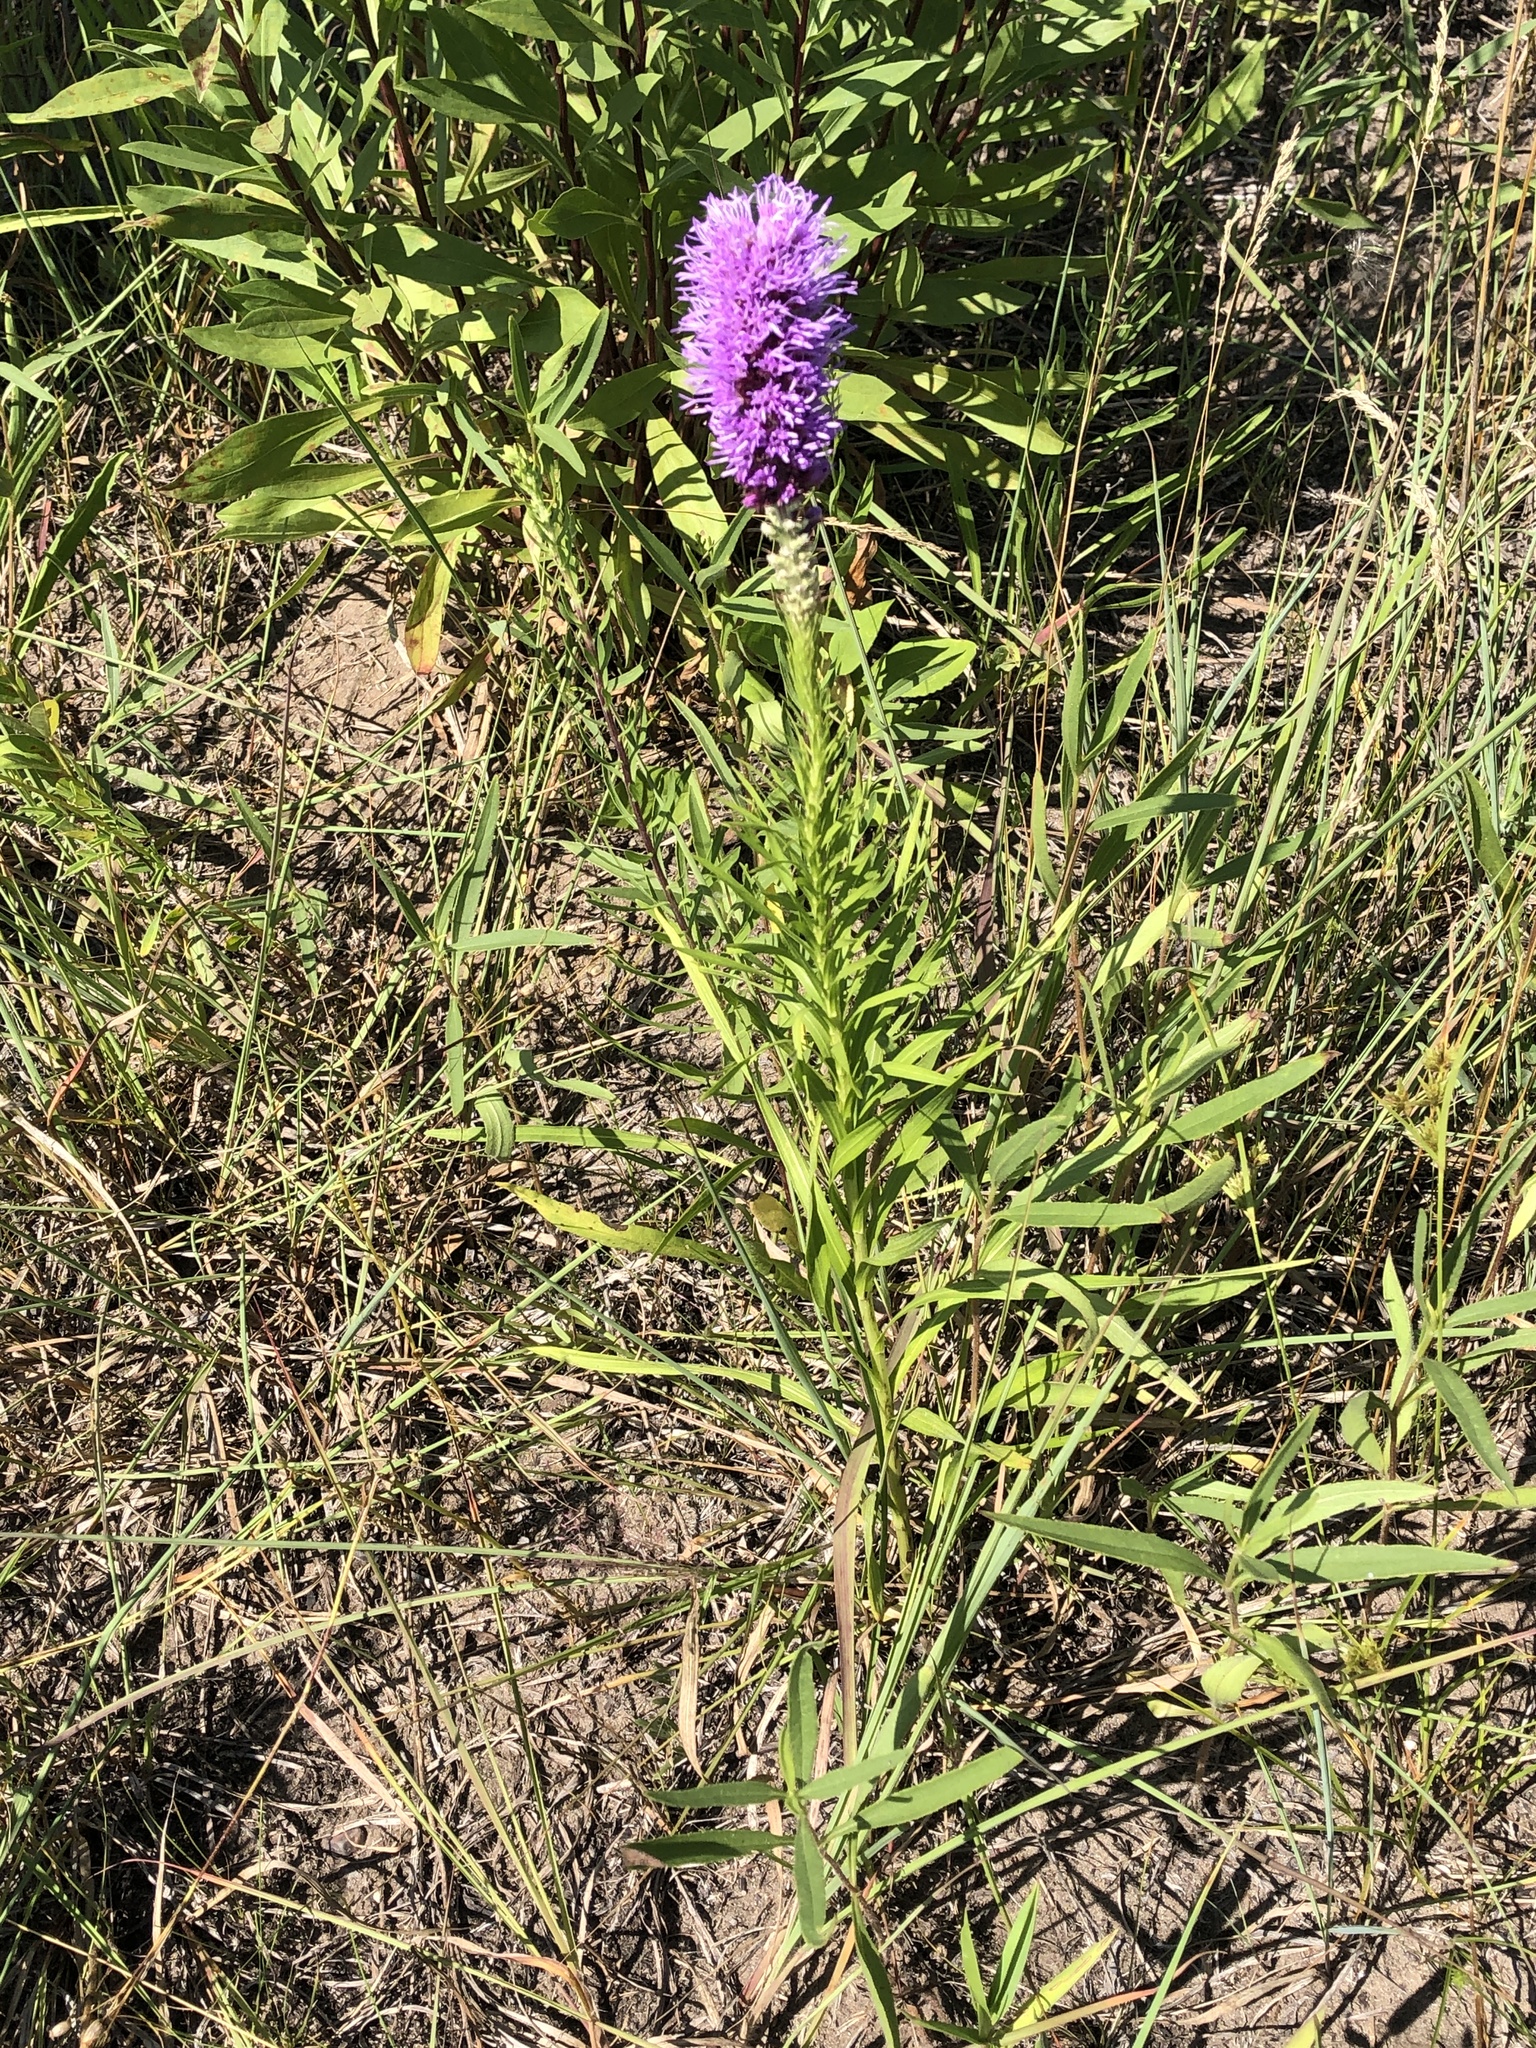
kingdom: Plantae
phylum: Tracheophyta
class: Magnoliopsida
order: Asterales
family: Asteraceae
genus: Liatris
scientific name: Liatris pycnostachya
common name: Cattail gayfeather
